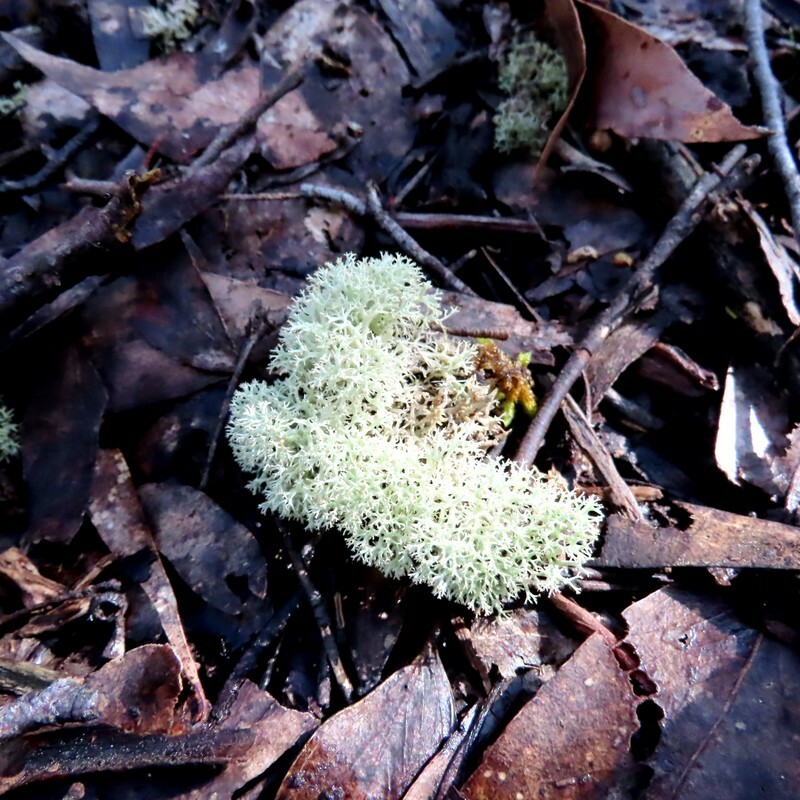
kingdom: Fungi
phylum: Ascomycota
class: Lecanoromycetes
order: Lecanorales
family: Cladoniaceae
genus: Cladonia
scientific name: Cladonia confusa
